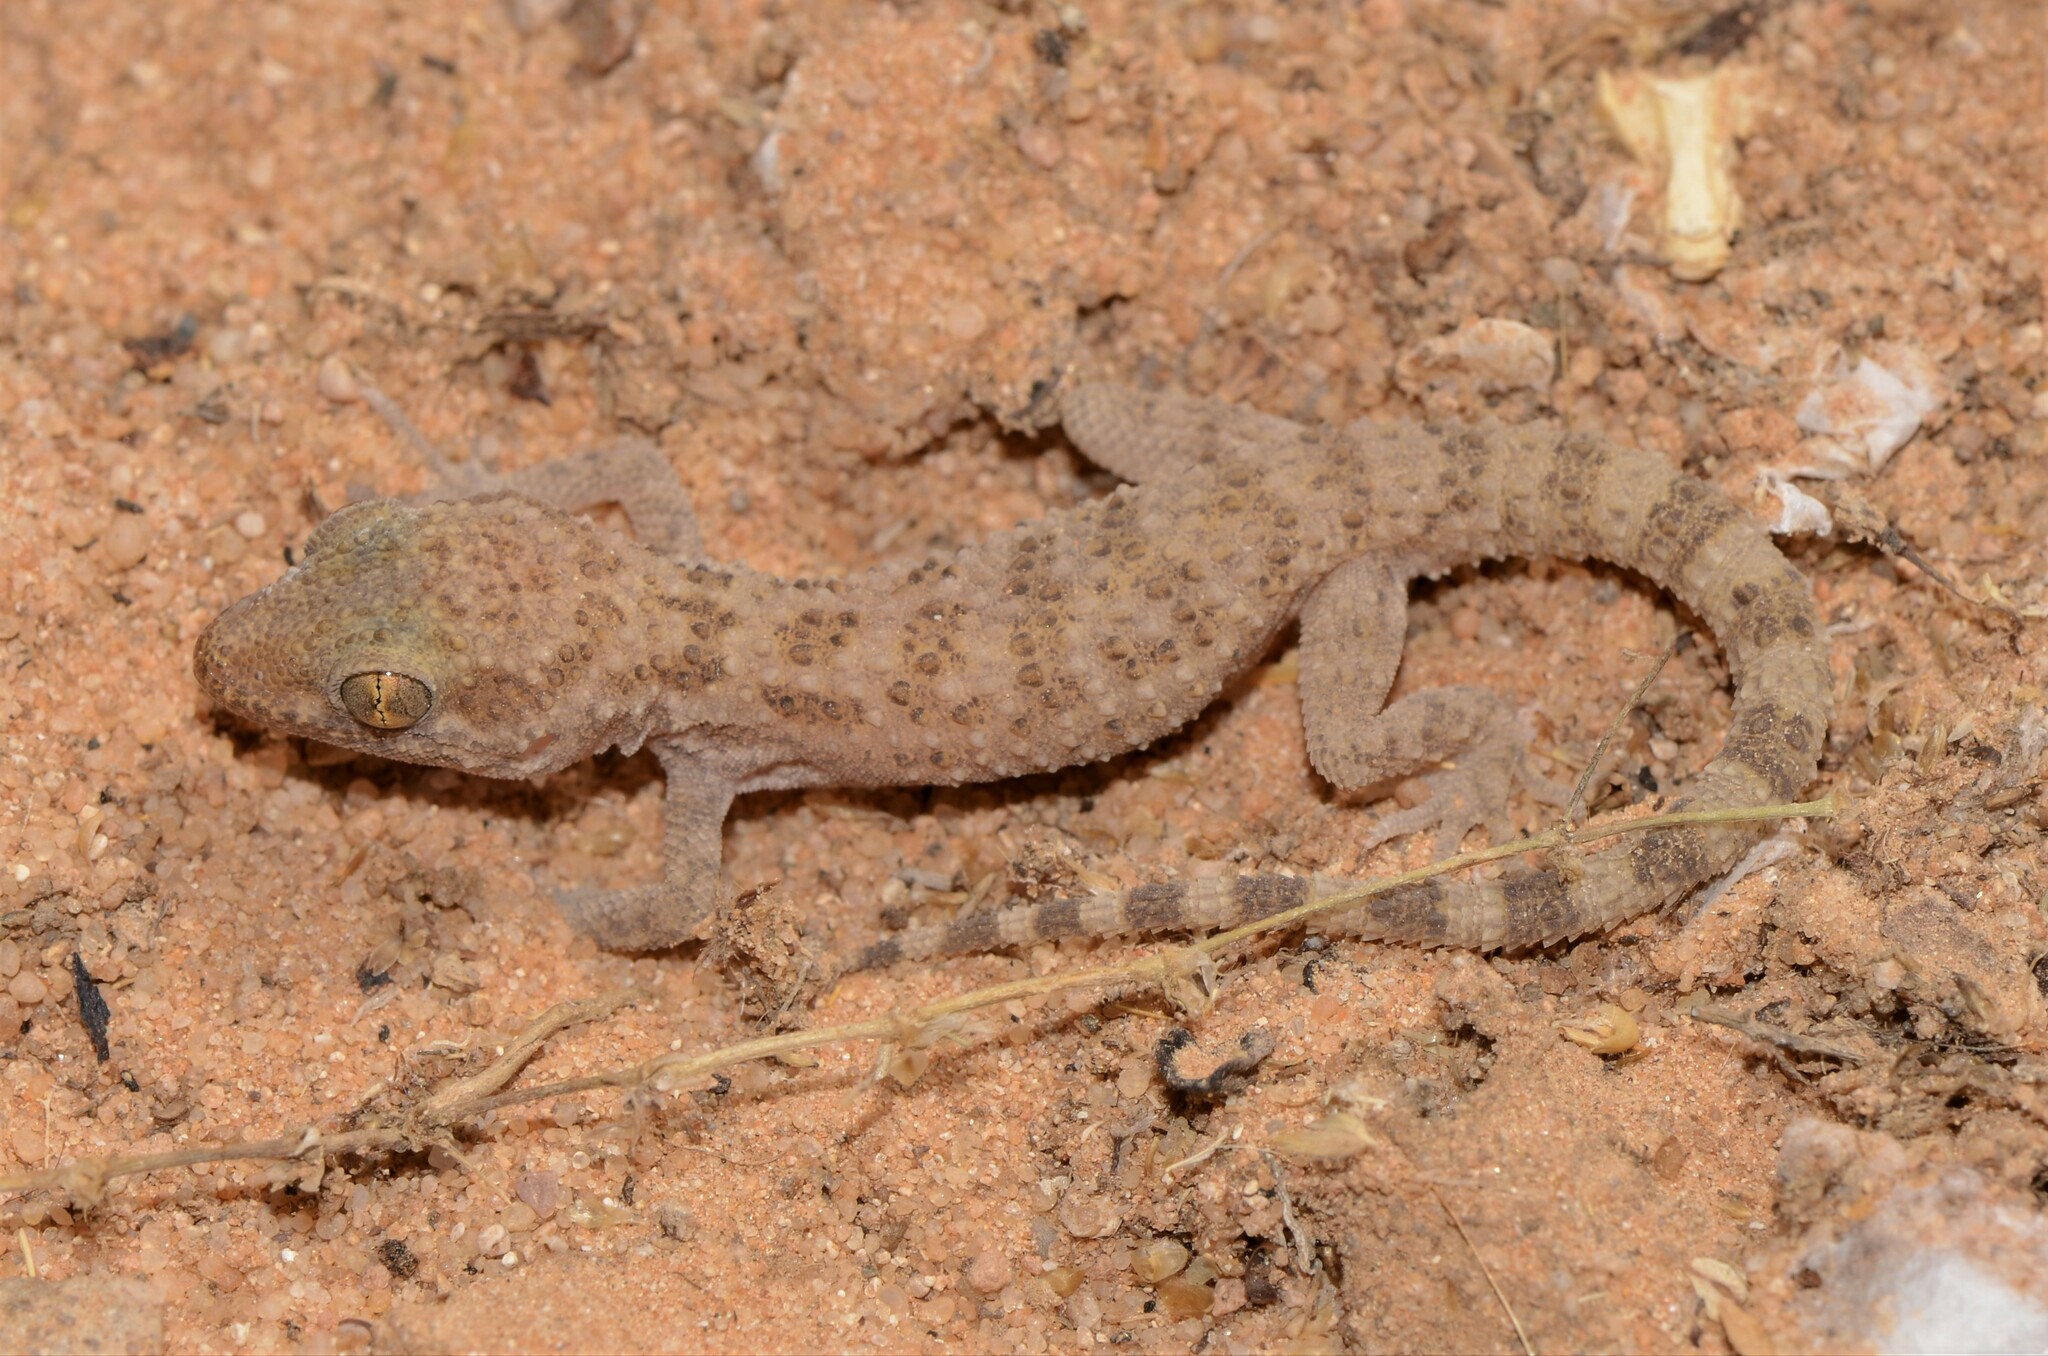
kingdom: Animalia
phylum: Chordata
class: Squamata
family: Gekkonidae
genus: Bunopus
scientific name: Bunopus tuberculatus
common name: Southern tuberculated gecko
